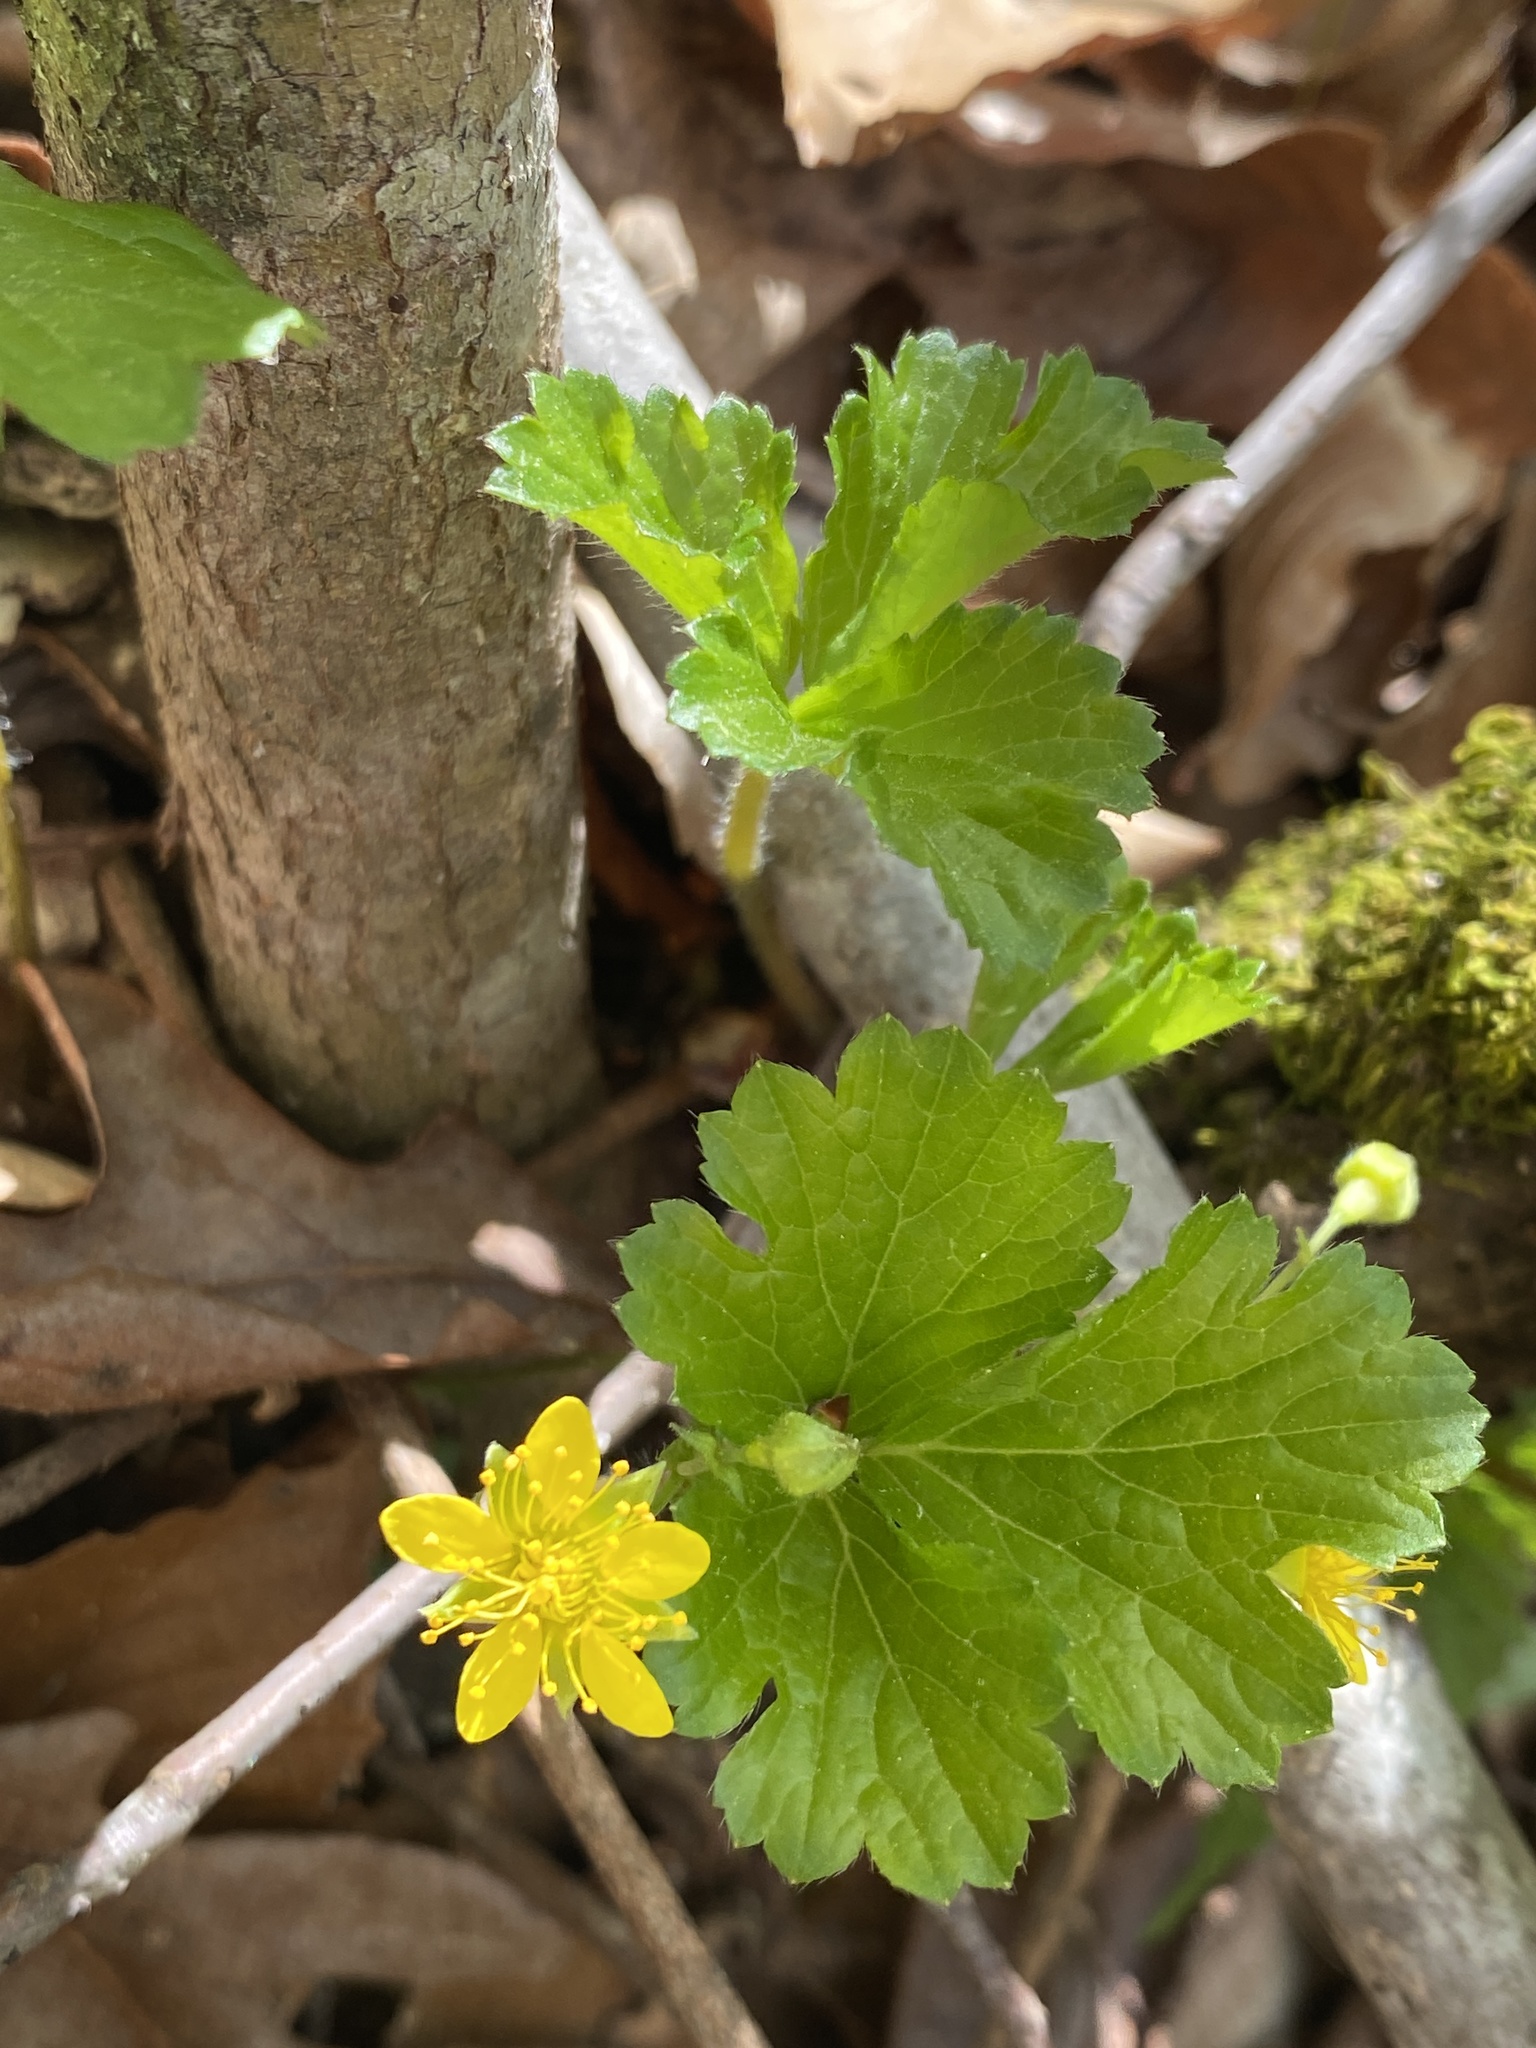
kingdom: Plantae
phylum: Tracheophyta
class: Magnoliopsida
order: Rosales
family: Rosaceae
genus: Geum
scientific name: Geum donianum
